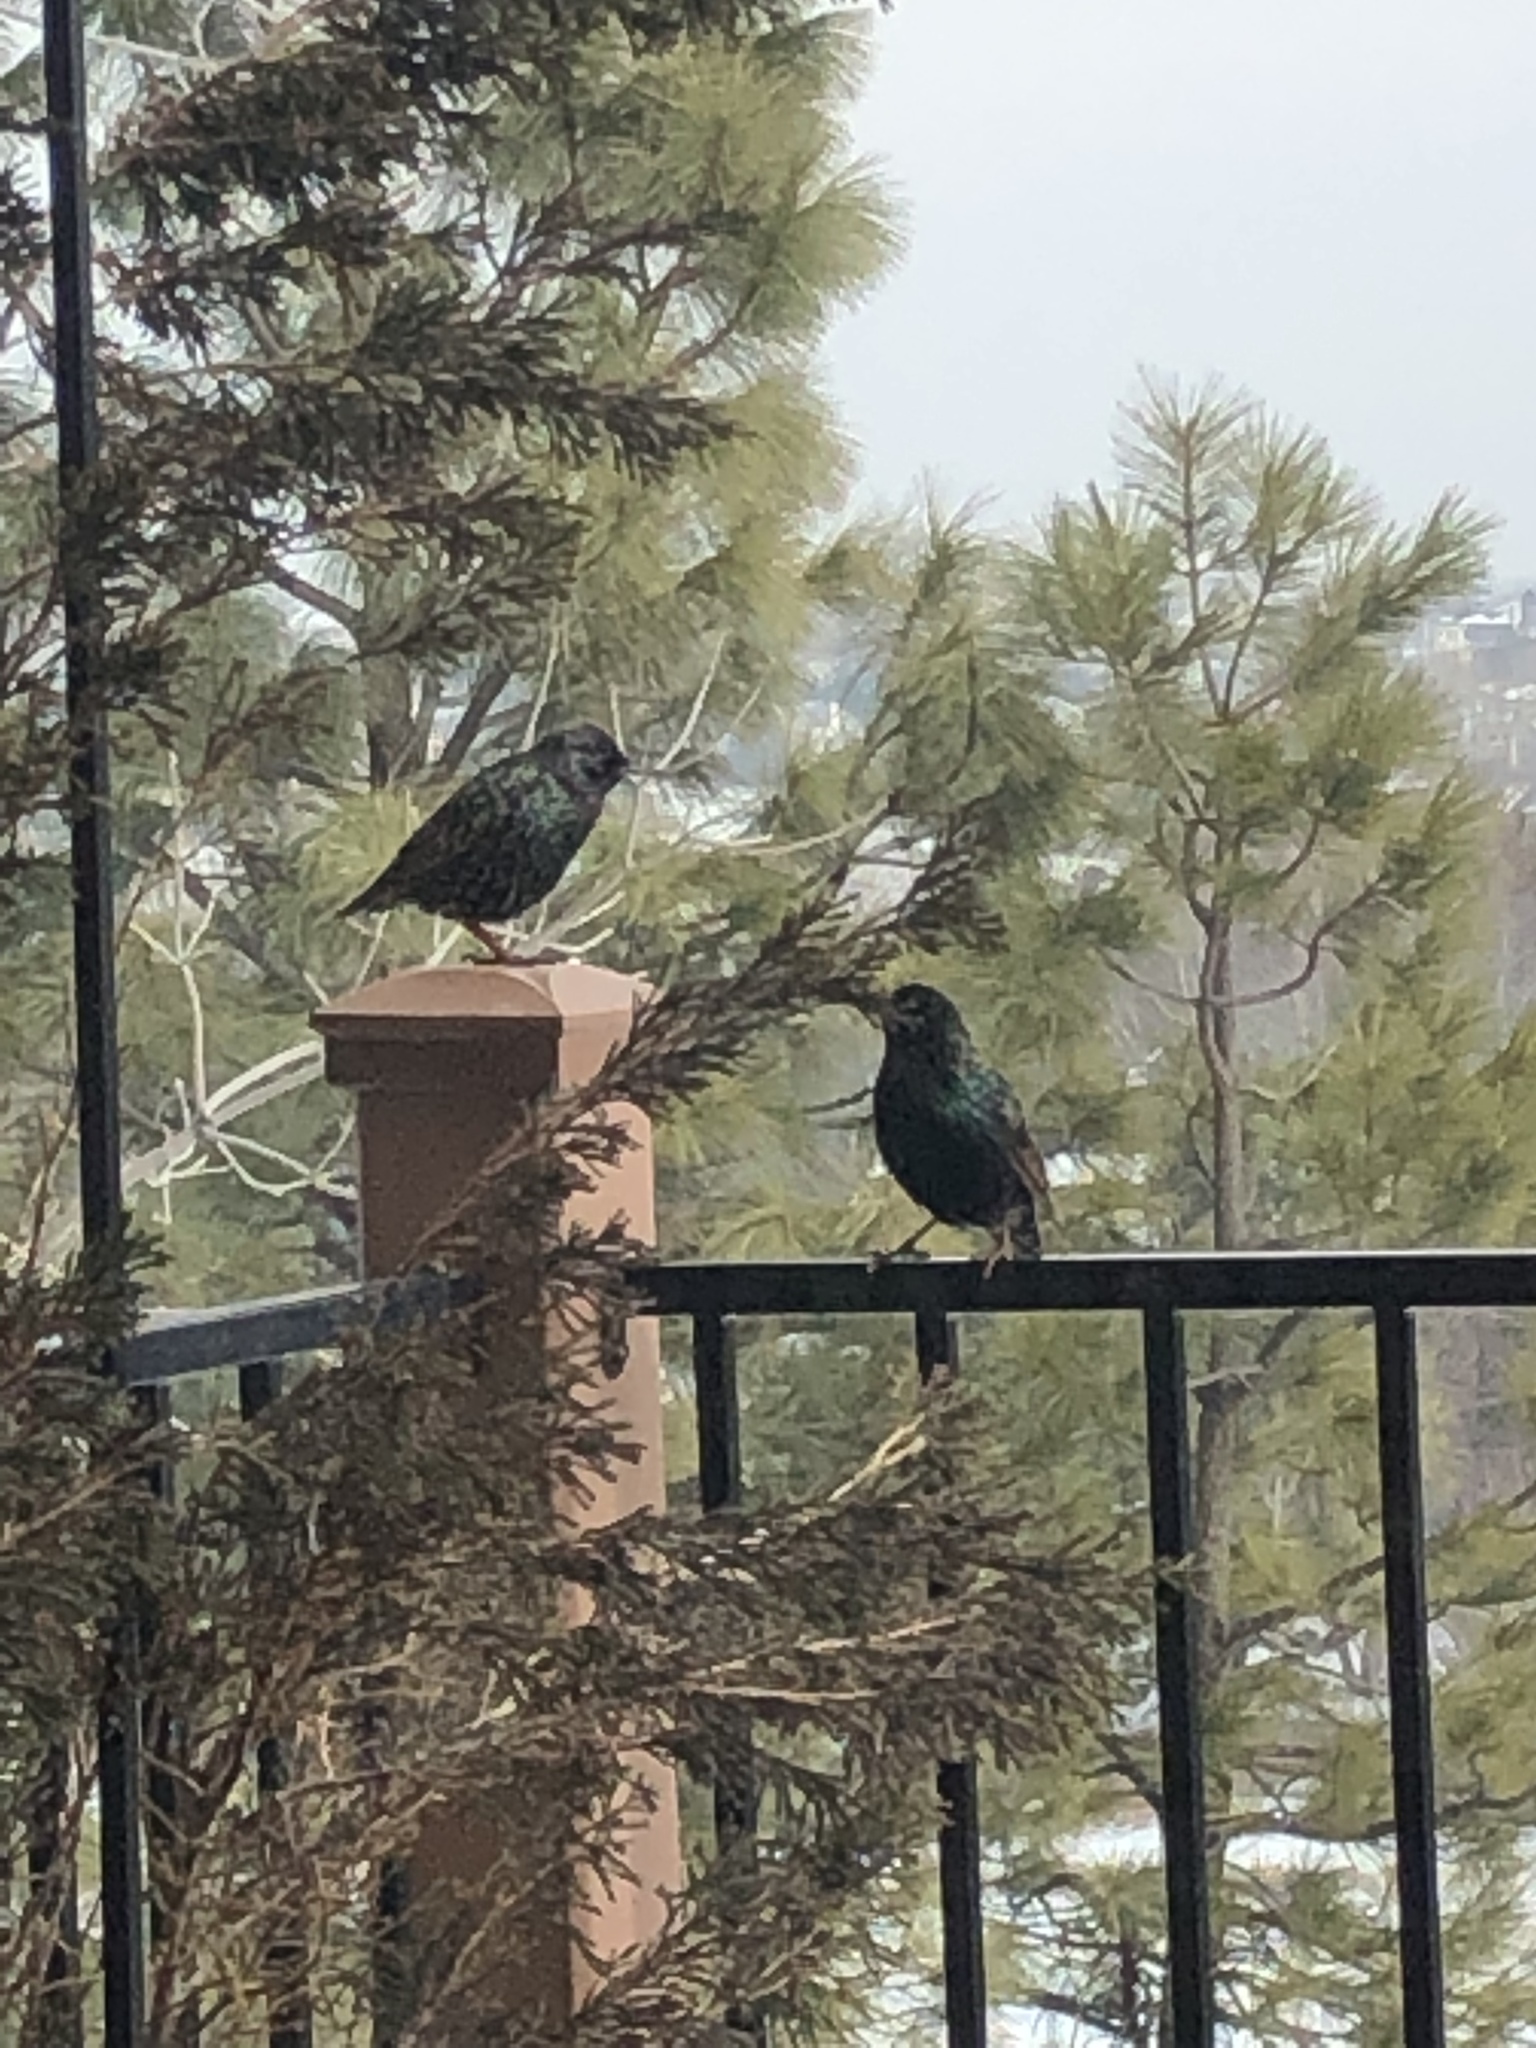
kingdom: Animalia
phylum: Chordata
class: Aves
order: Passeriformes
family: Sturnidae
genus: Sturnus
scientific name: Sturnus vulgaris
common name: Common starling
